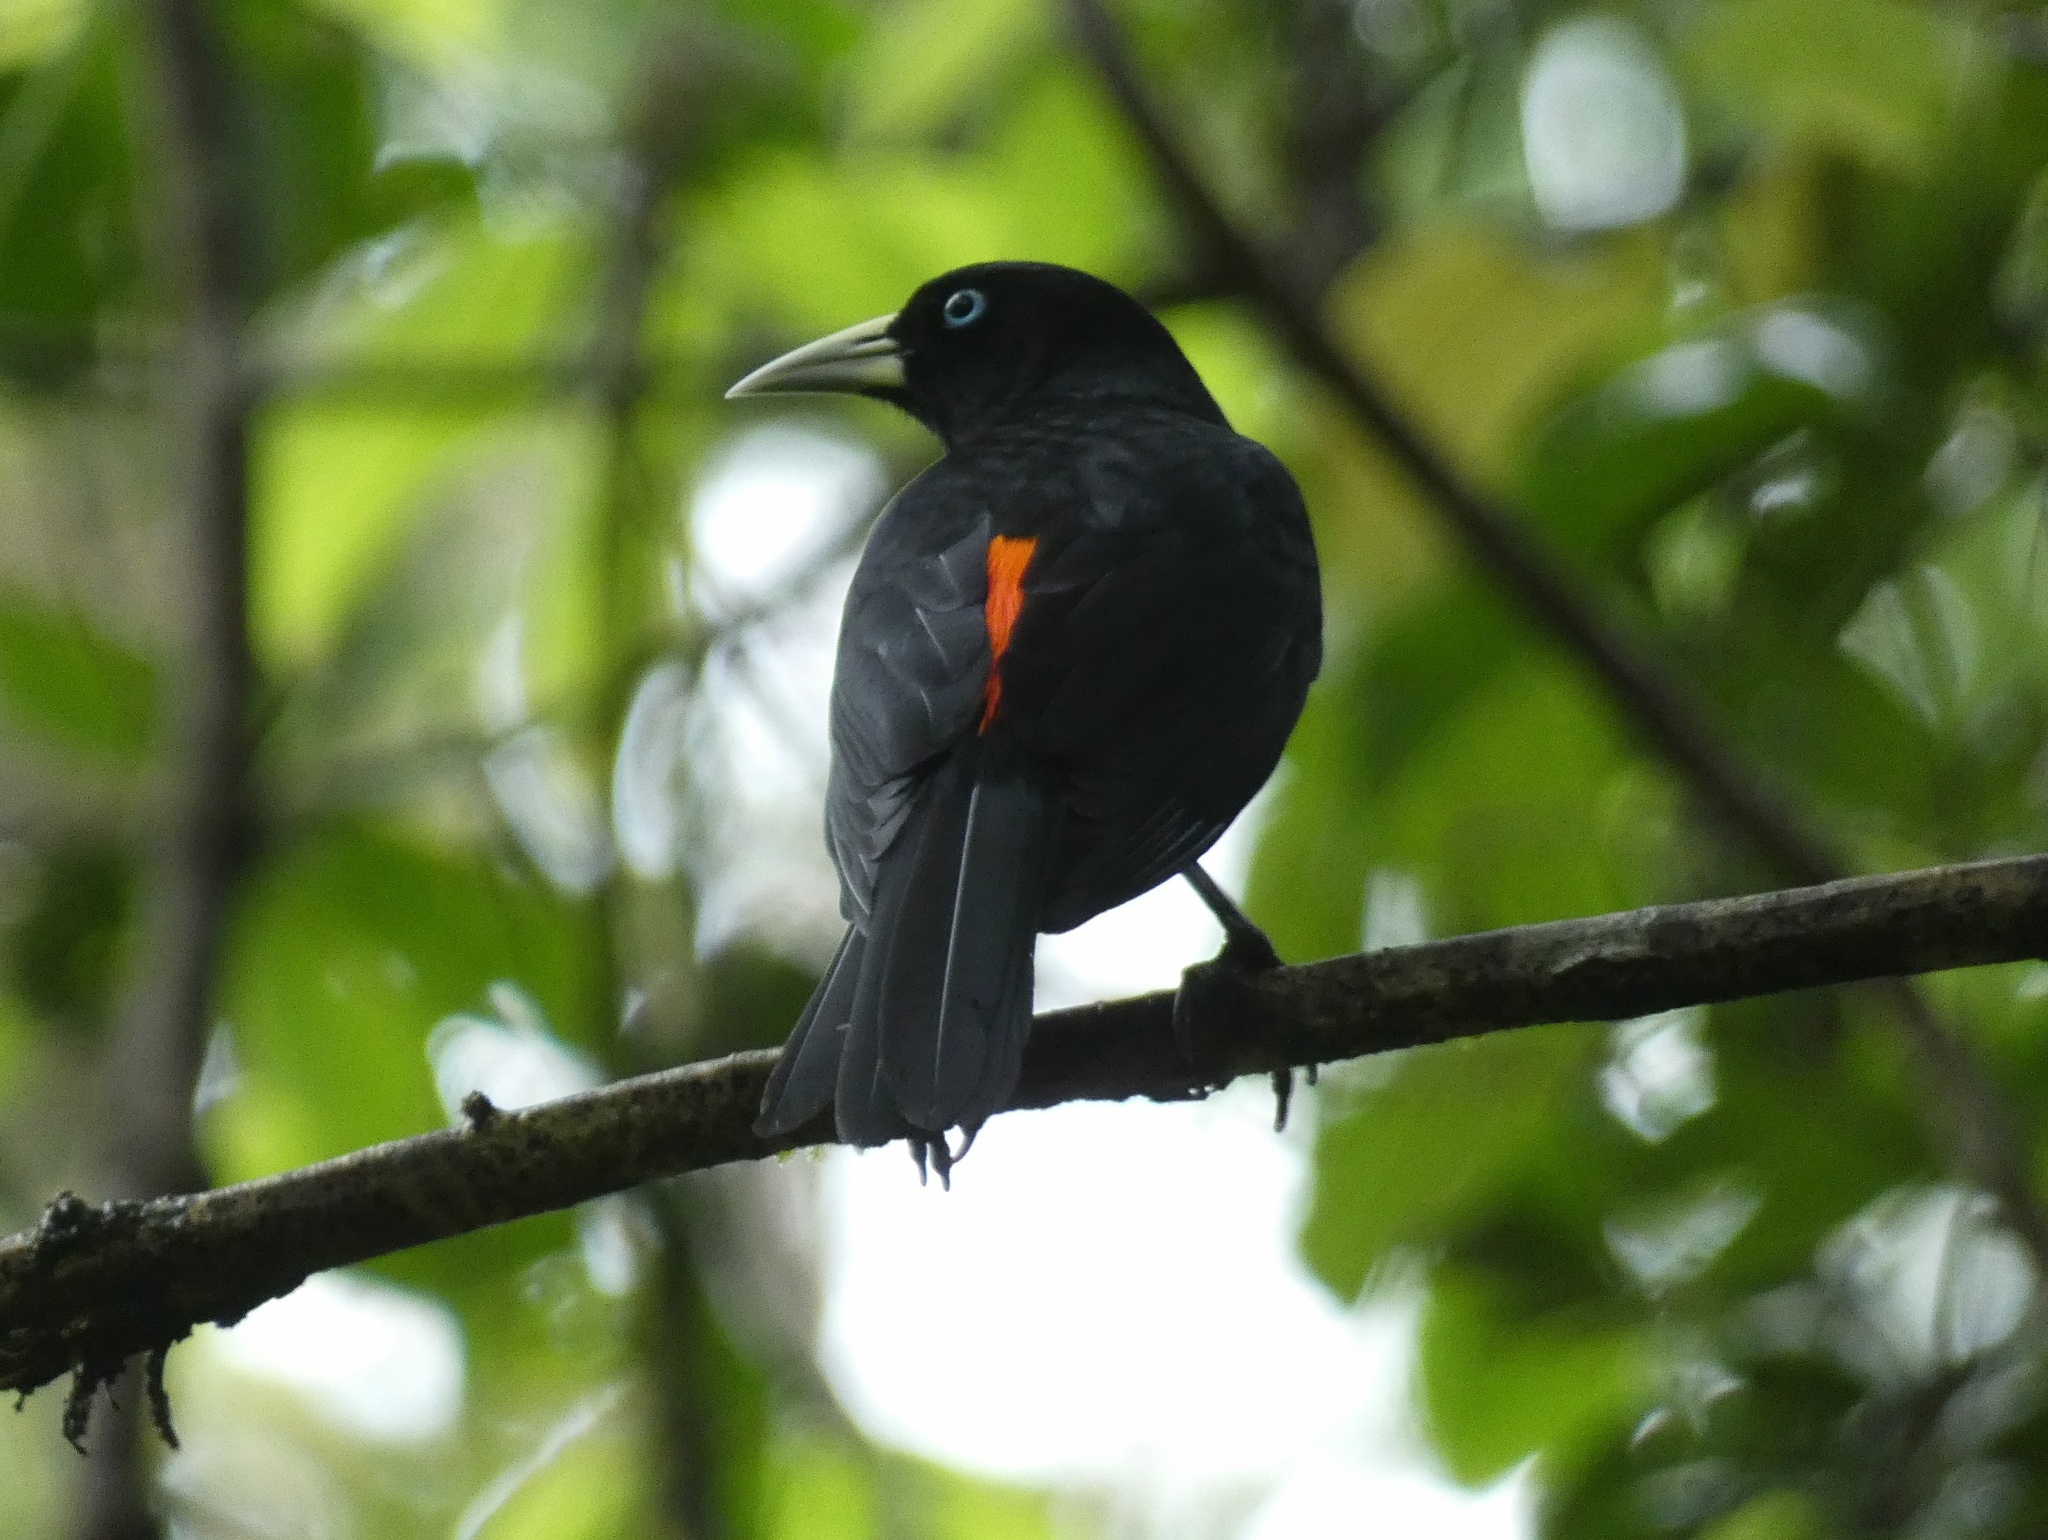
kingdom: Animalia
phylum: Chordata
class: Aves
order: Passeriformes
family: Icteridae
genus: Cacicus
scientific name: Cacicus uropygialis
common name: Scarlet-rumped cacique
